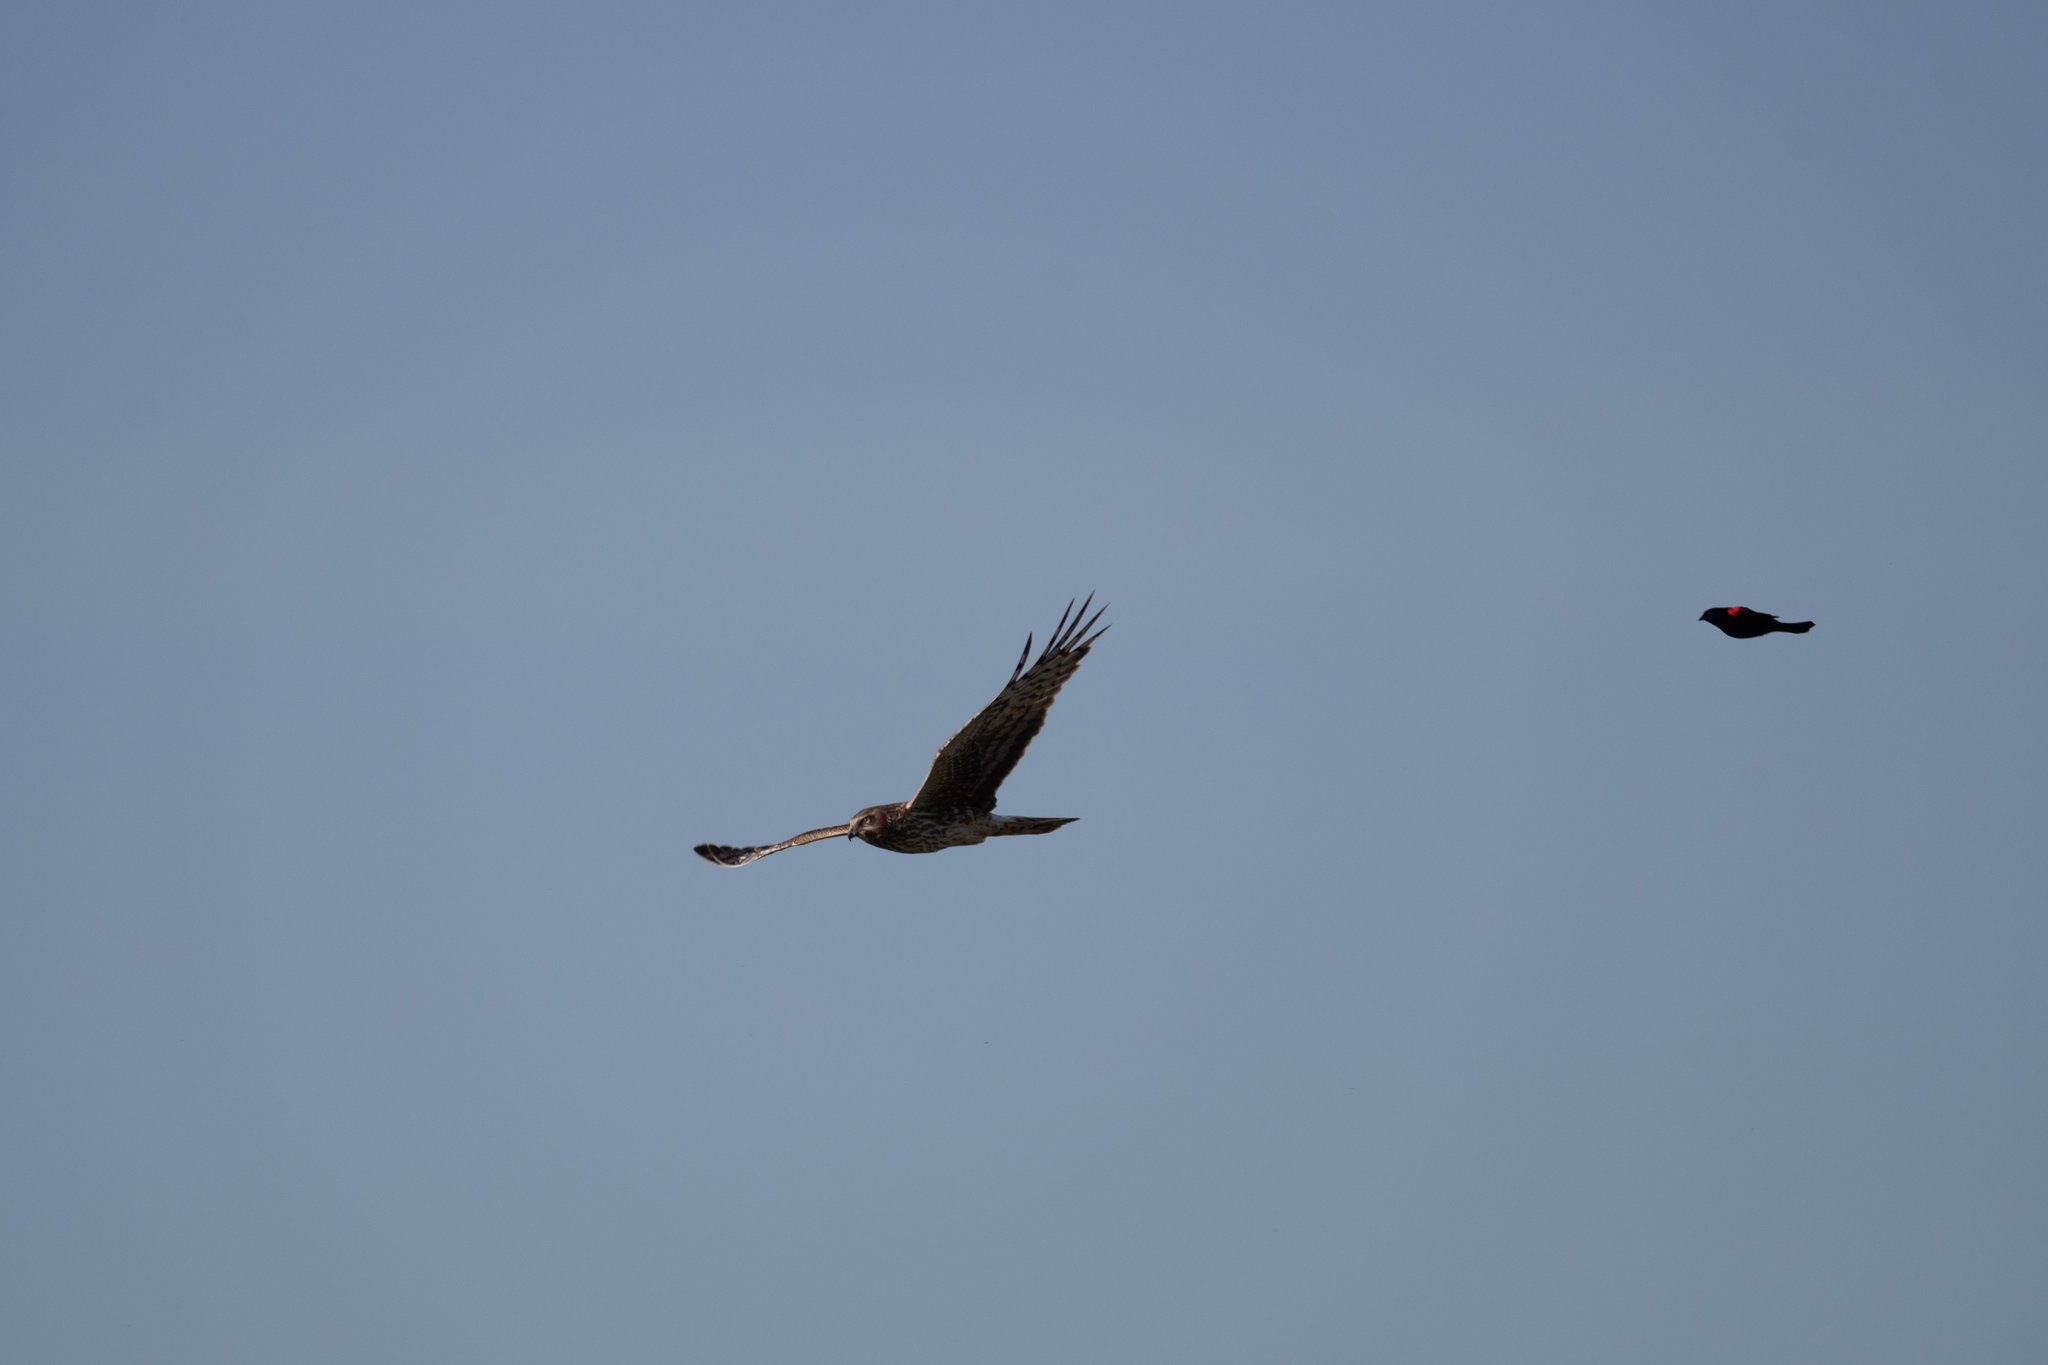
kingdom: Animalia
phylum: Chordata
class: Aves
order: Accipitriformes
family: Accipitridae
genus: Circus
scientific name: Circus cyaneus
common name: Hen harrier
